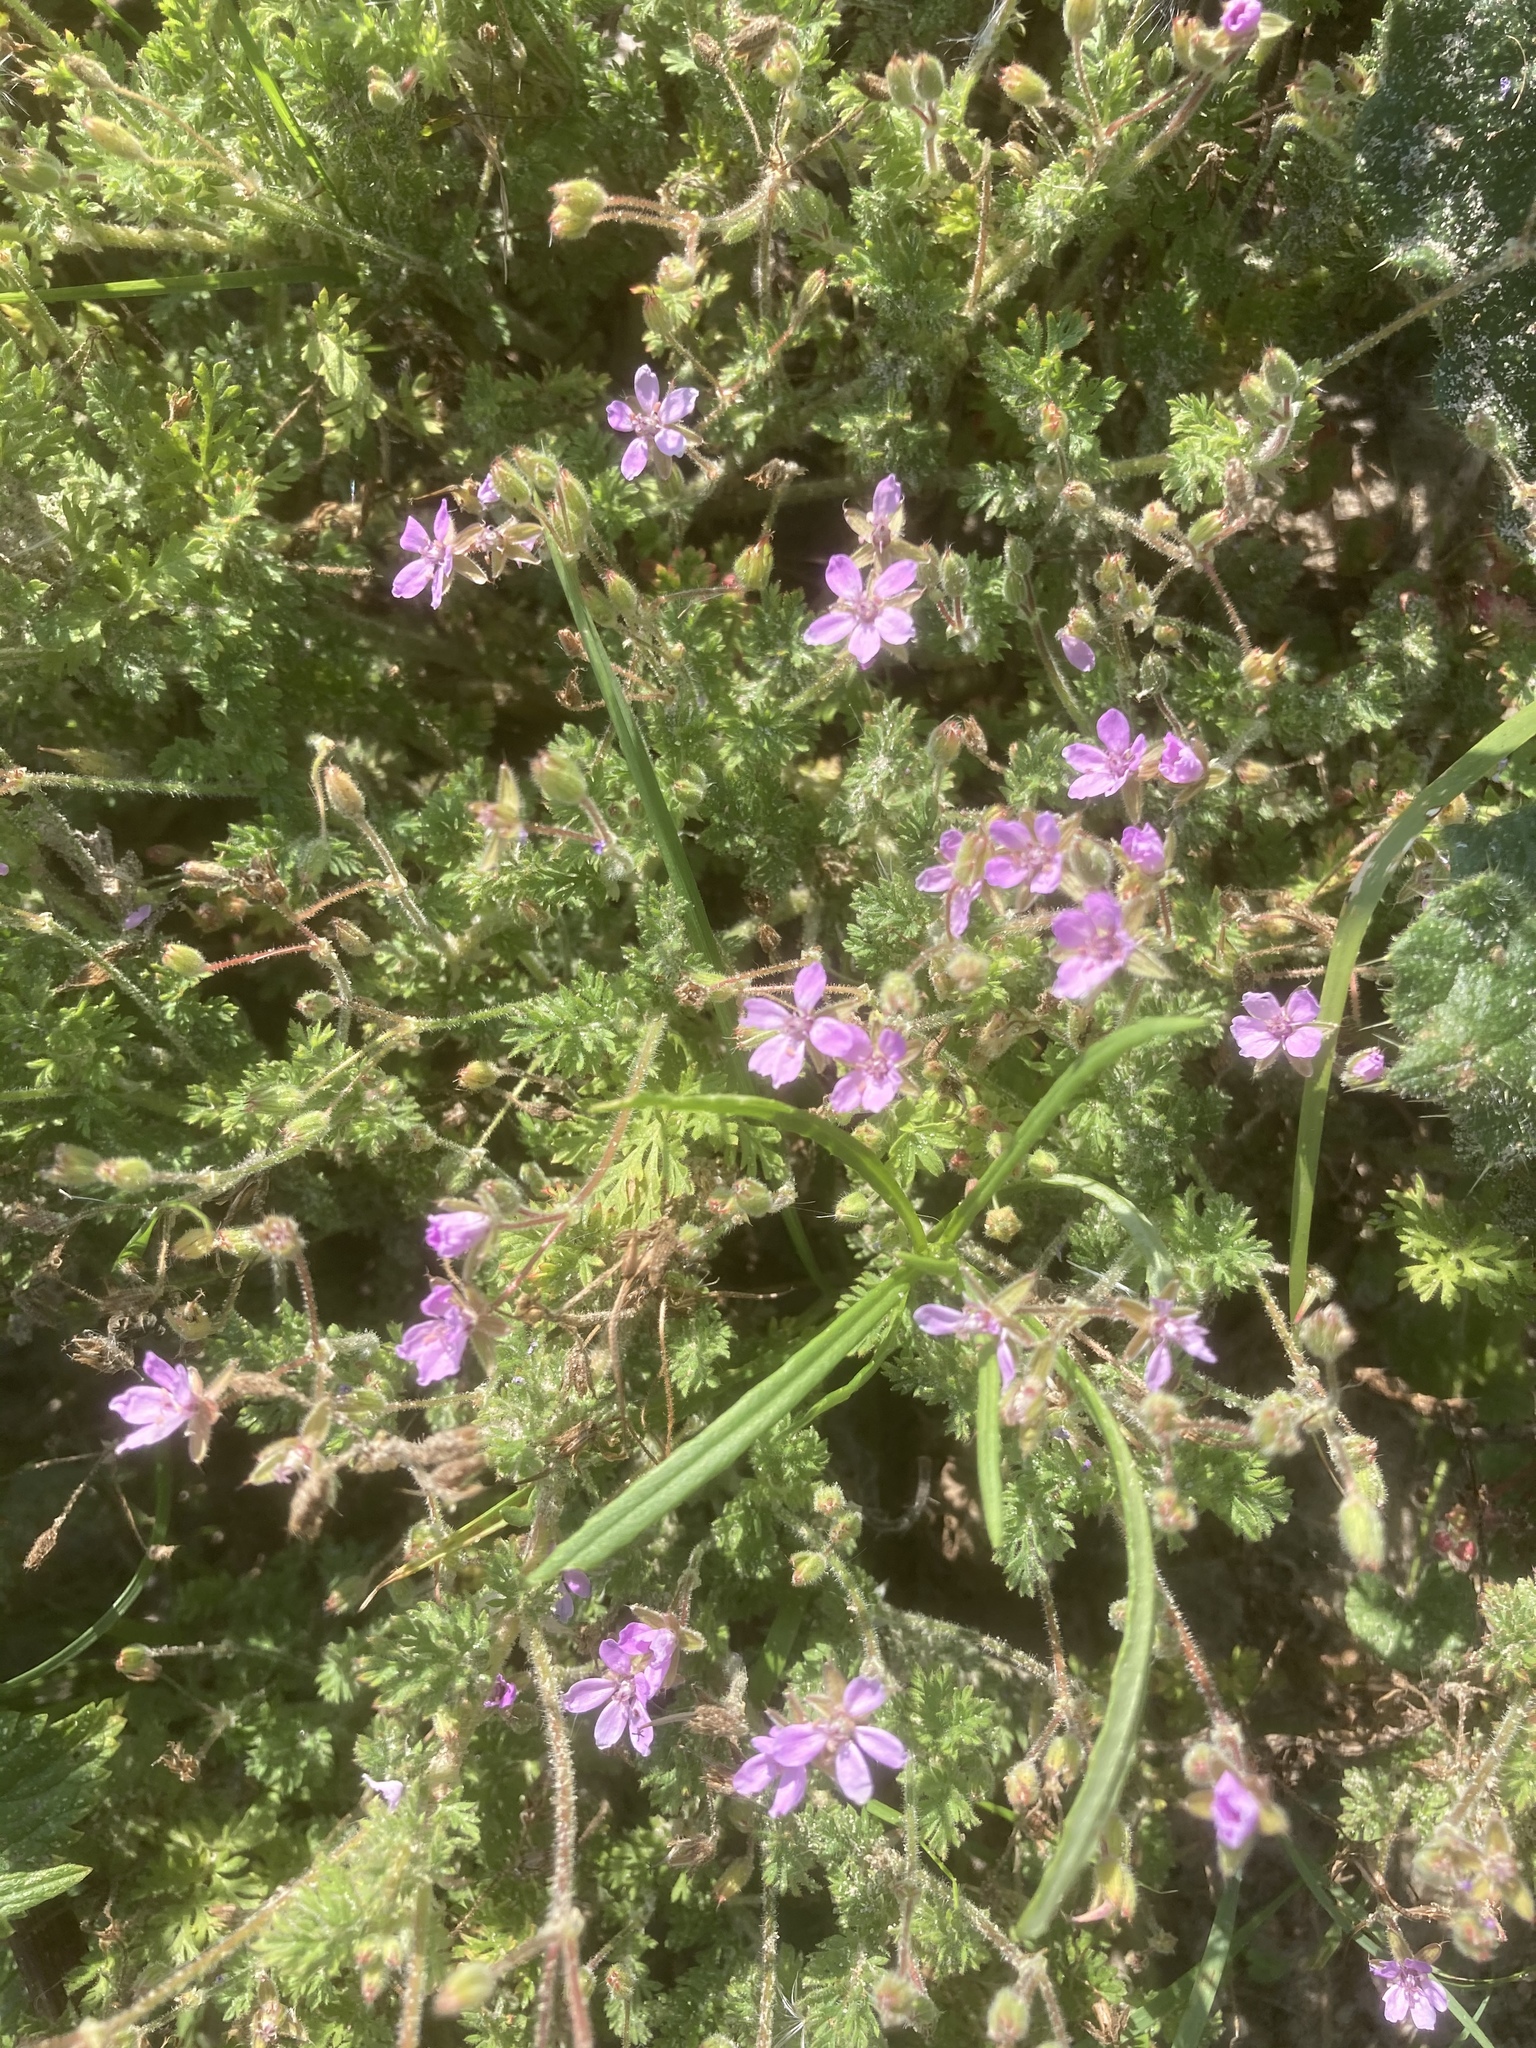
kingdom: Plantae
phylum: Tracheophyta
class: Magnoliopsida
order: Geraniales
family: Geraniaceae
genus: Erodium
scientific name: Erodium cicutarium
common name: Common stork's-bill
